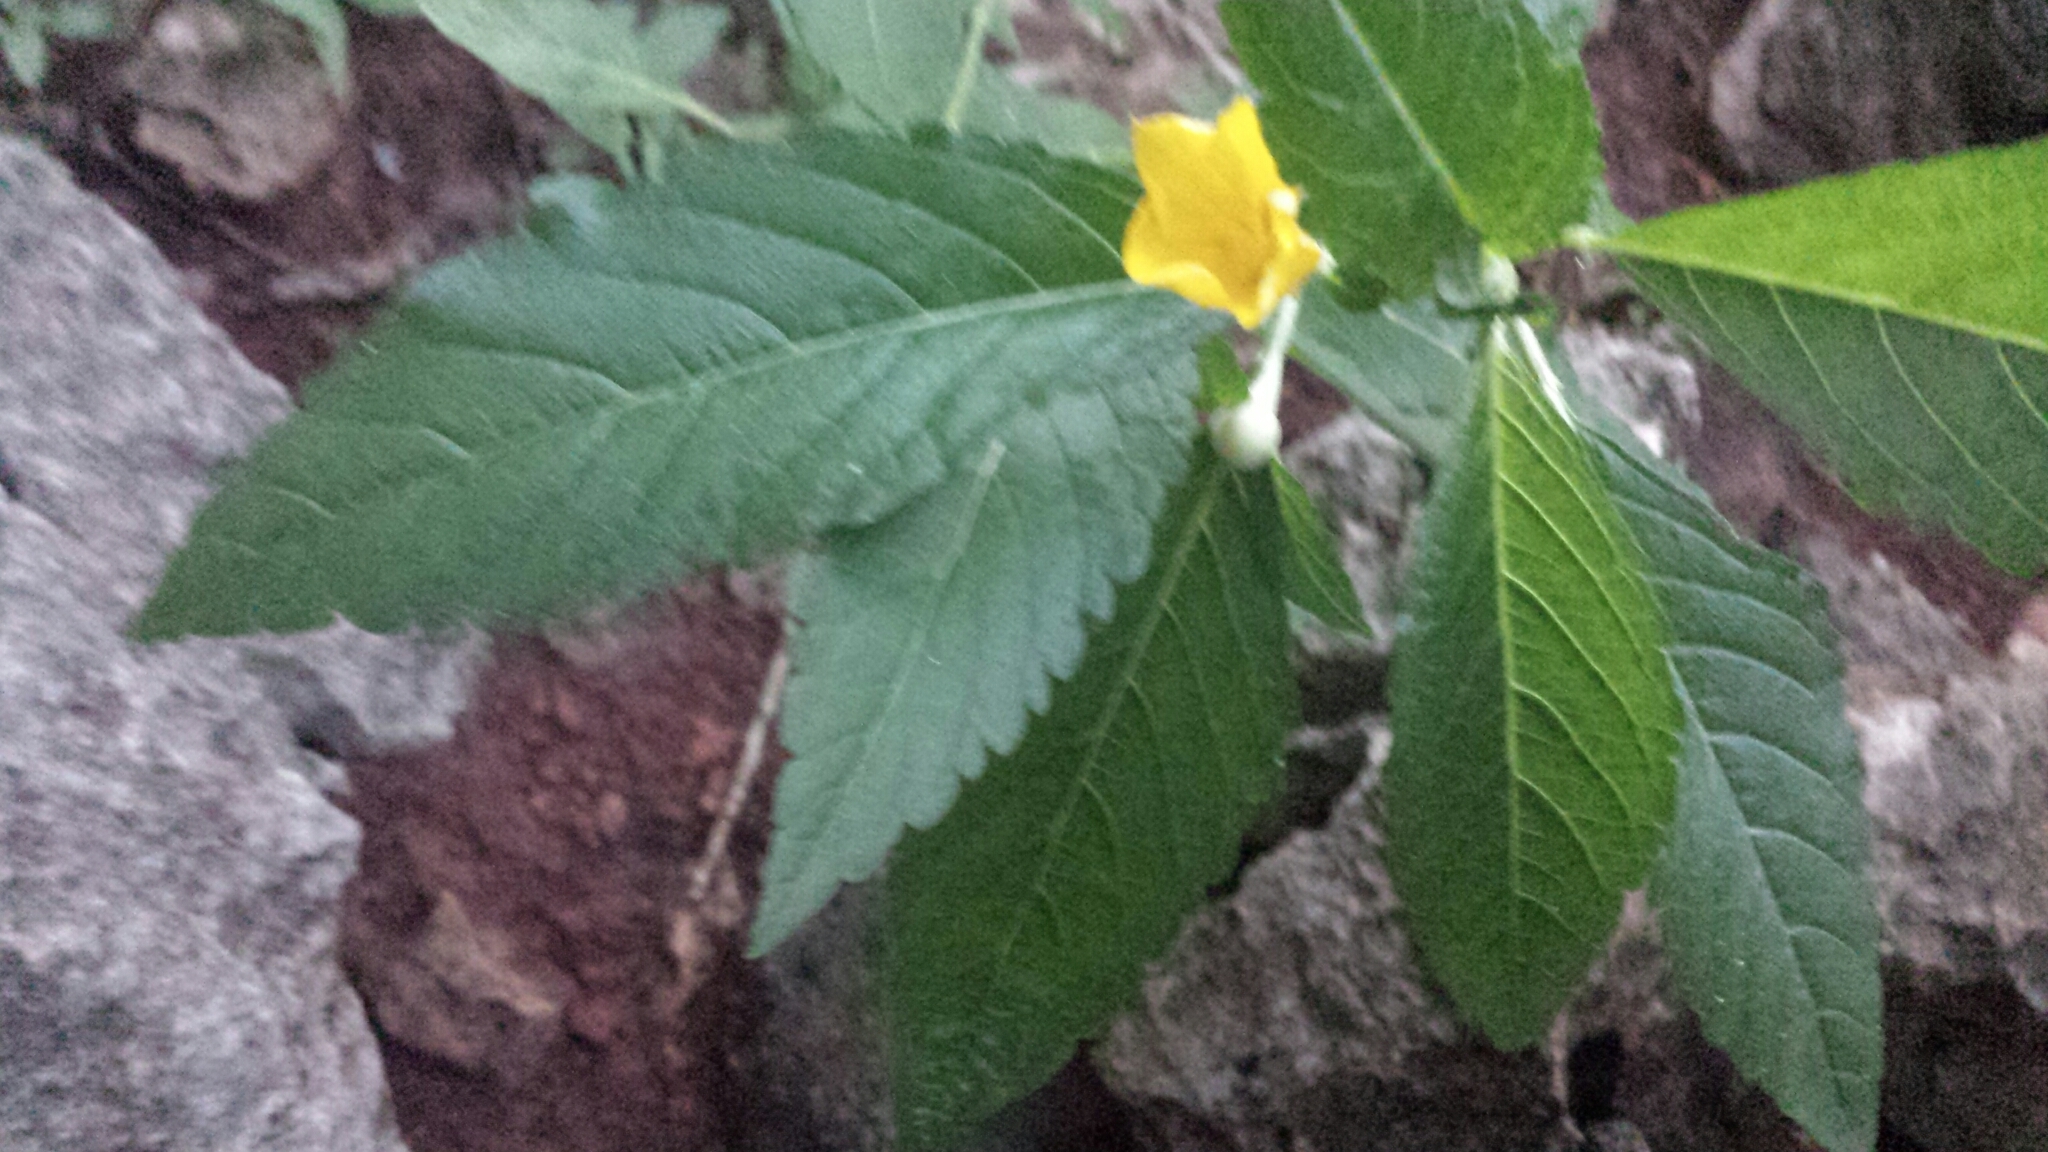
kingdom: Plantae
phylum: Tracheophyta
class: Magnoliopsida
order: Malpighiales
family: Turneraceae
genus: Turnera
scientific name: Turnera ulmifolia
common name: Ramgoat dashalong
